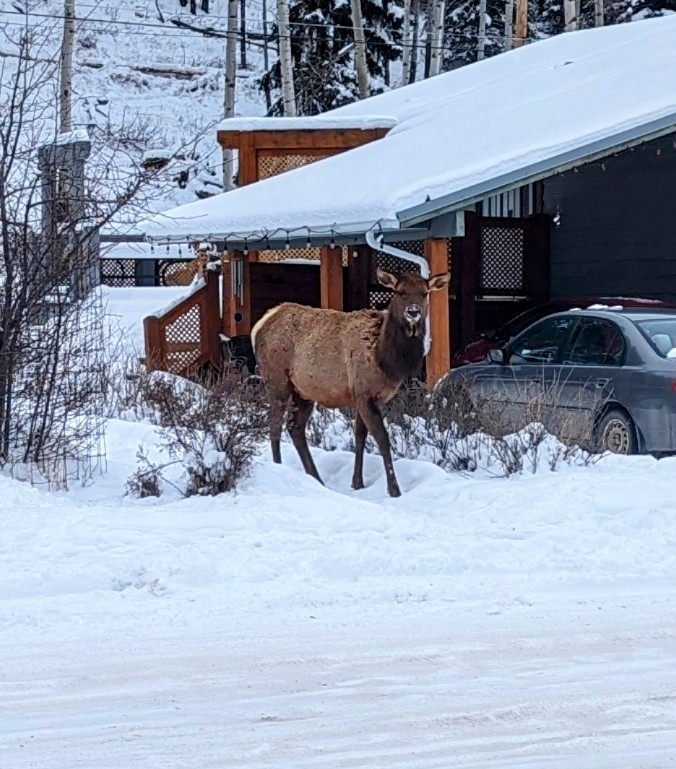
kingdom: Animalia
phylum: Chordata
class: Mammalia
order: Artiodactyla
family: Cervidae
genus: Cervus
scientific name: Cervus elaphus
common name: Red deer
